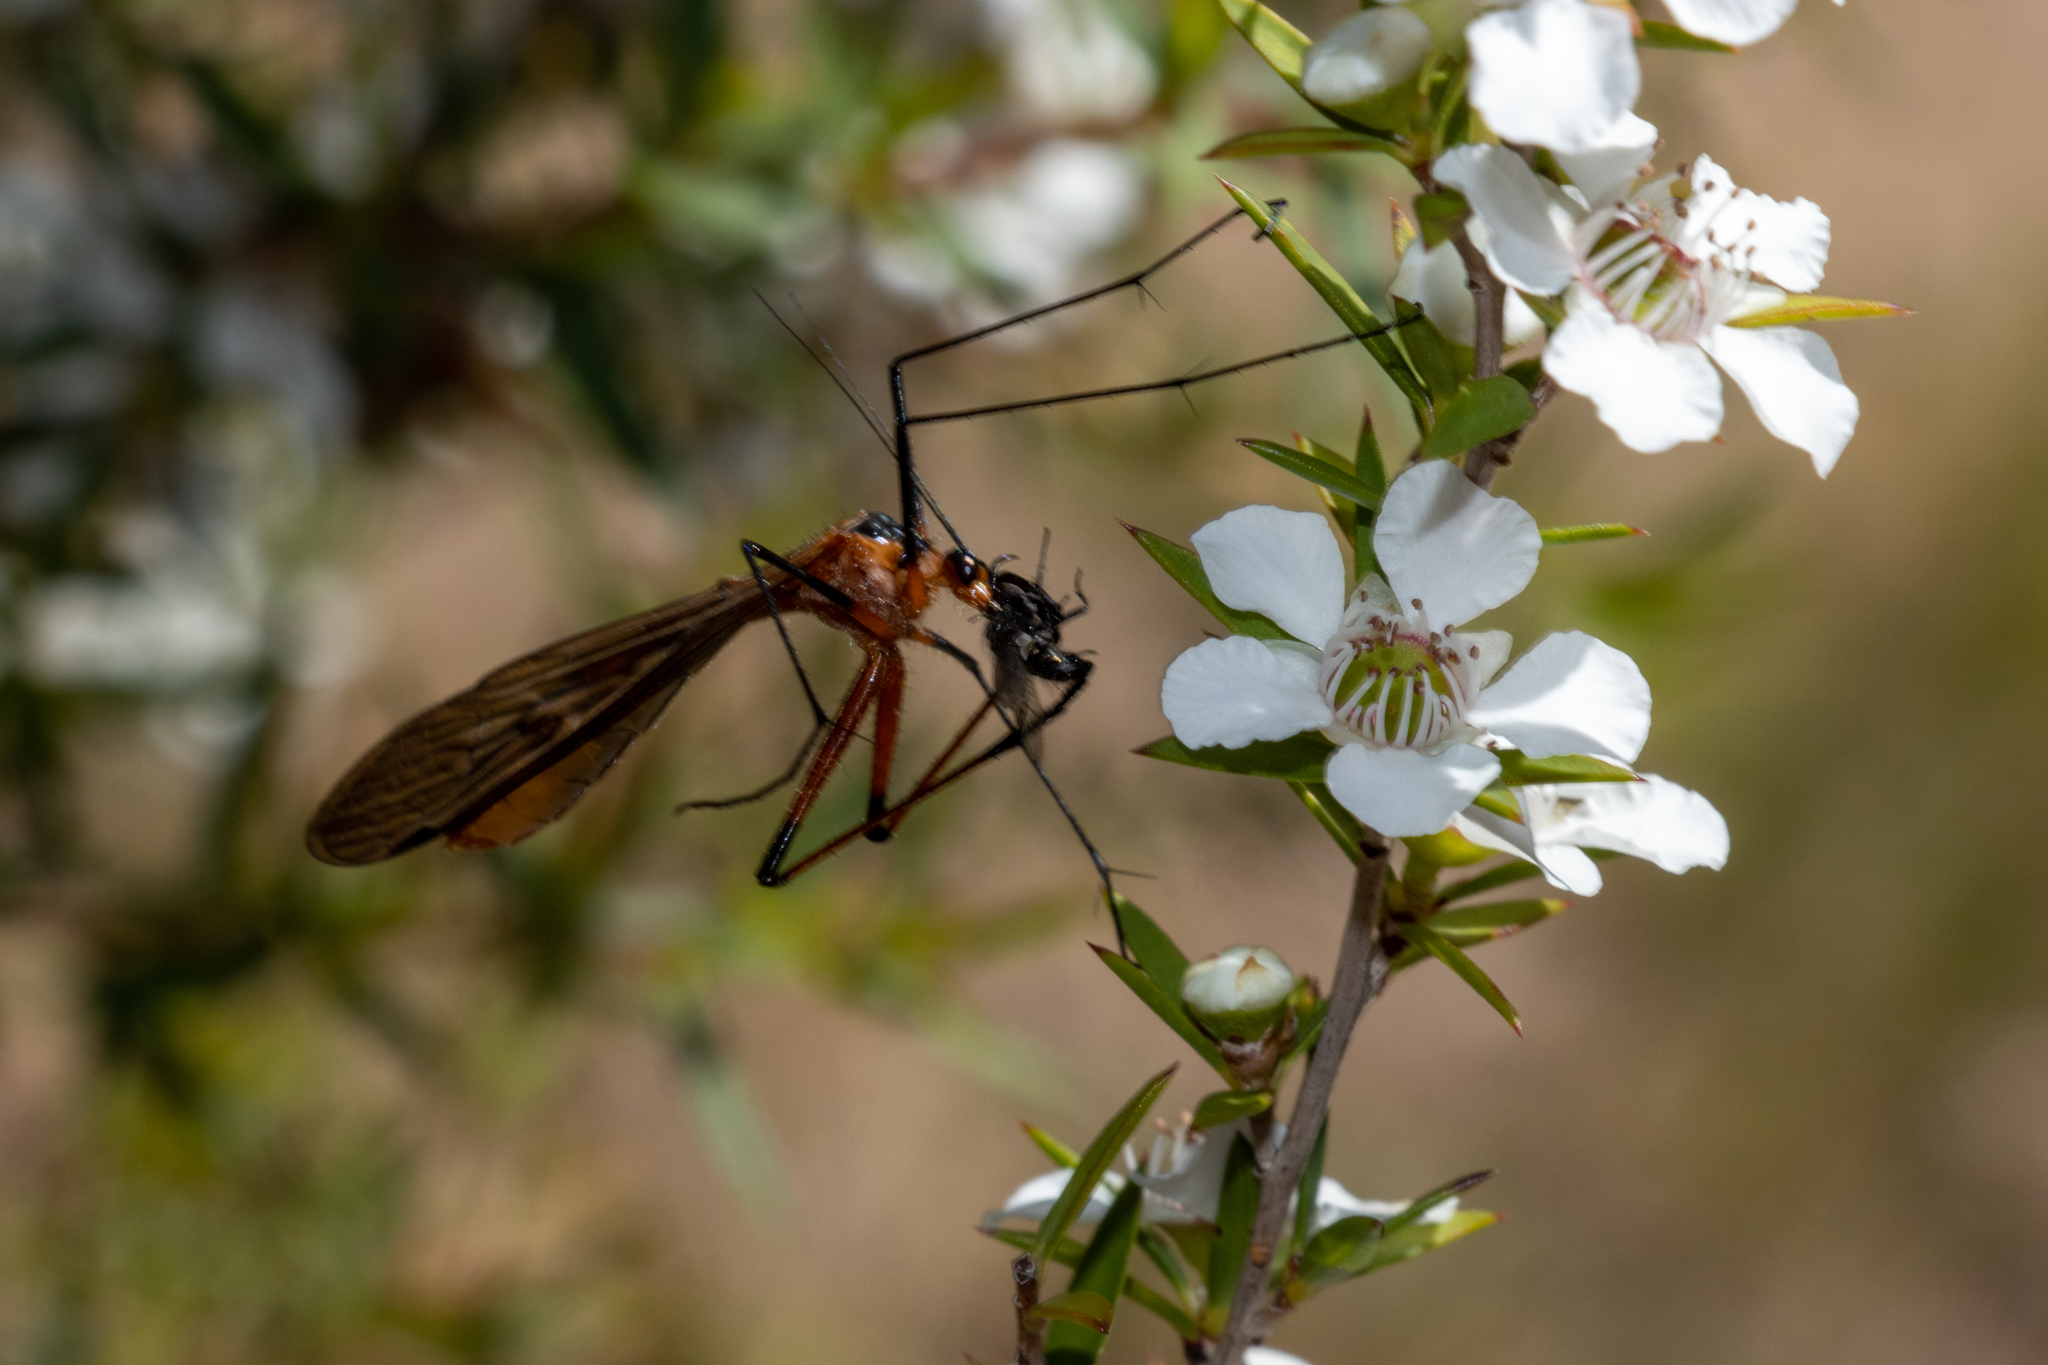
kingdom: Animalia
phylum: Arthropoda
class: Insecta
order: Mecoptera
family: Bittacidae
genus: Harpobittacus
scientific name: Harpobittacus australis
